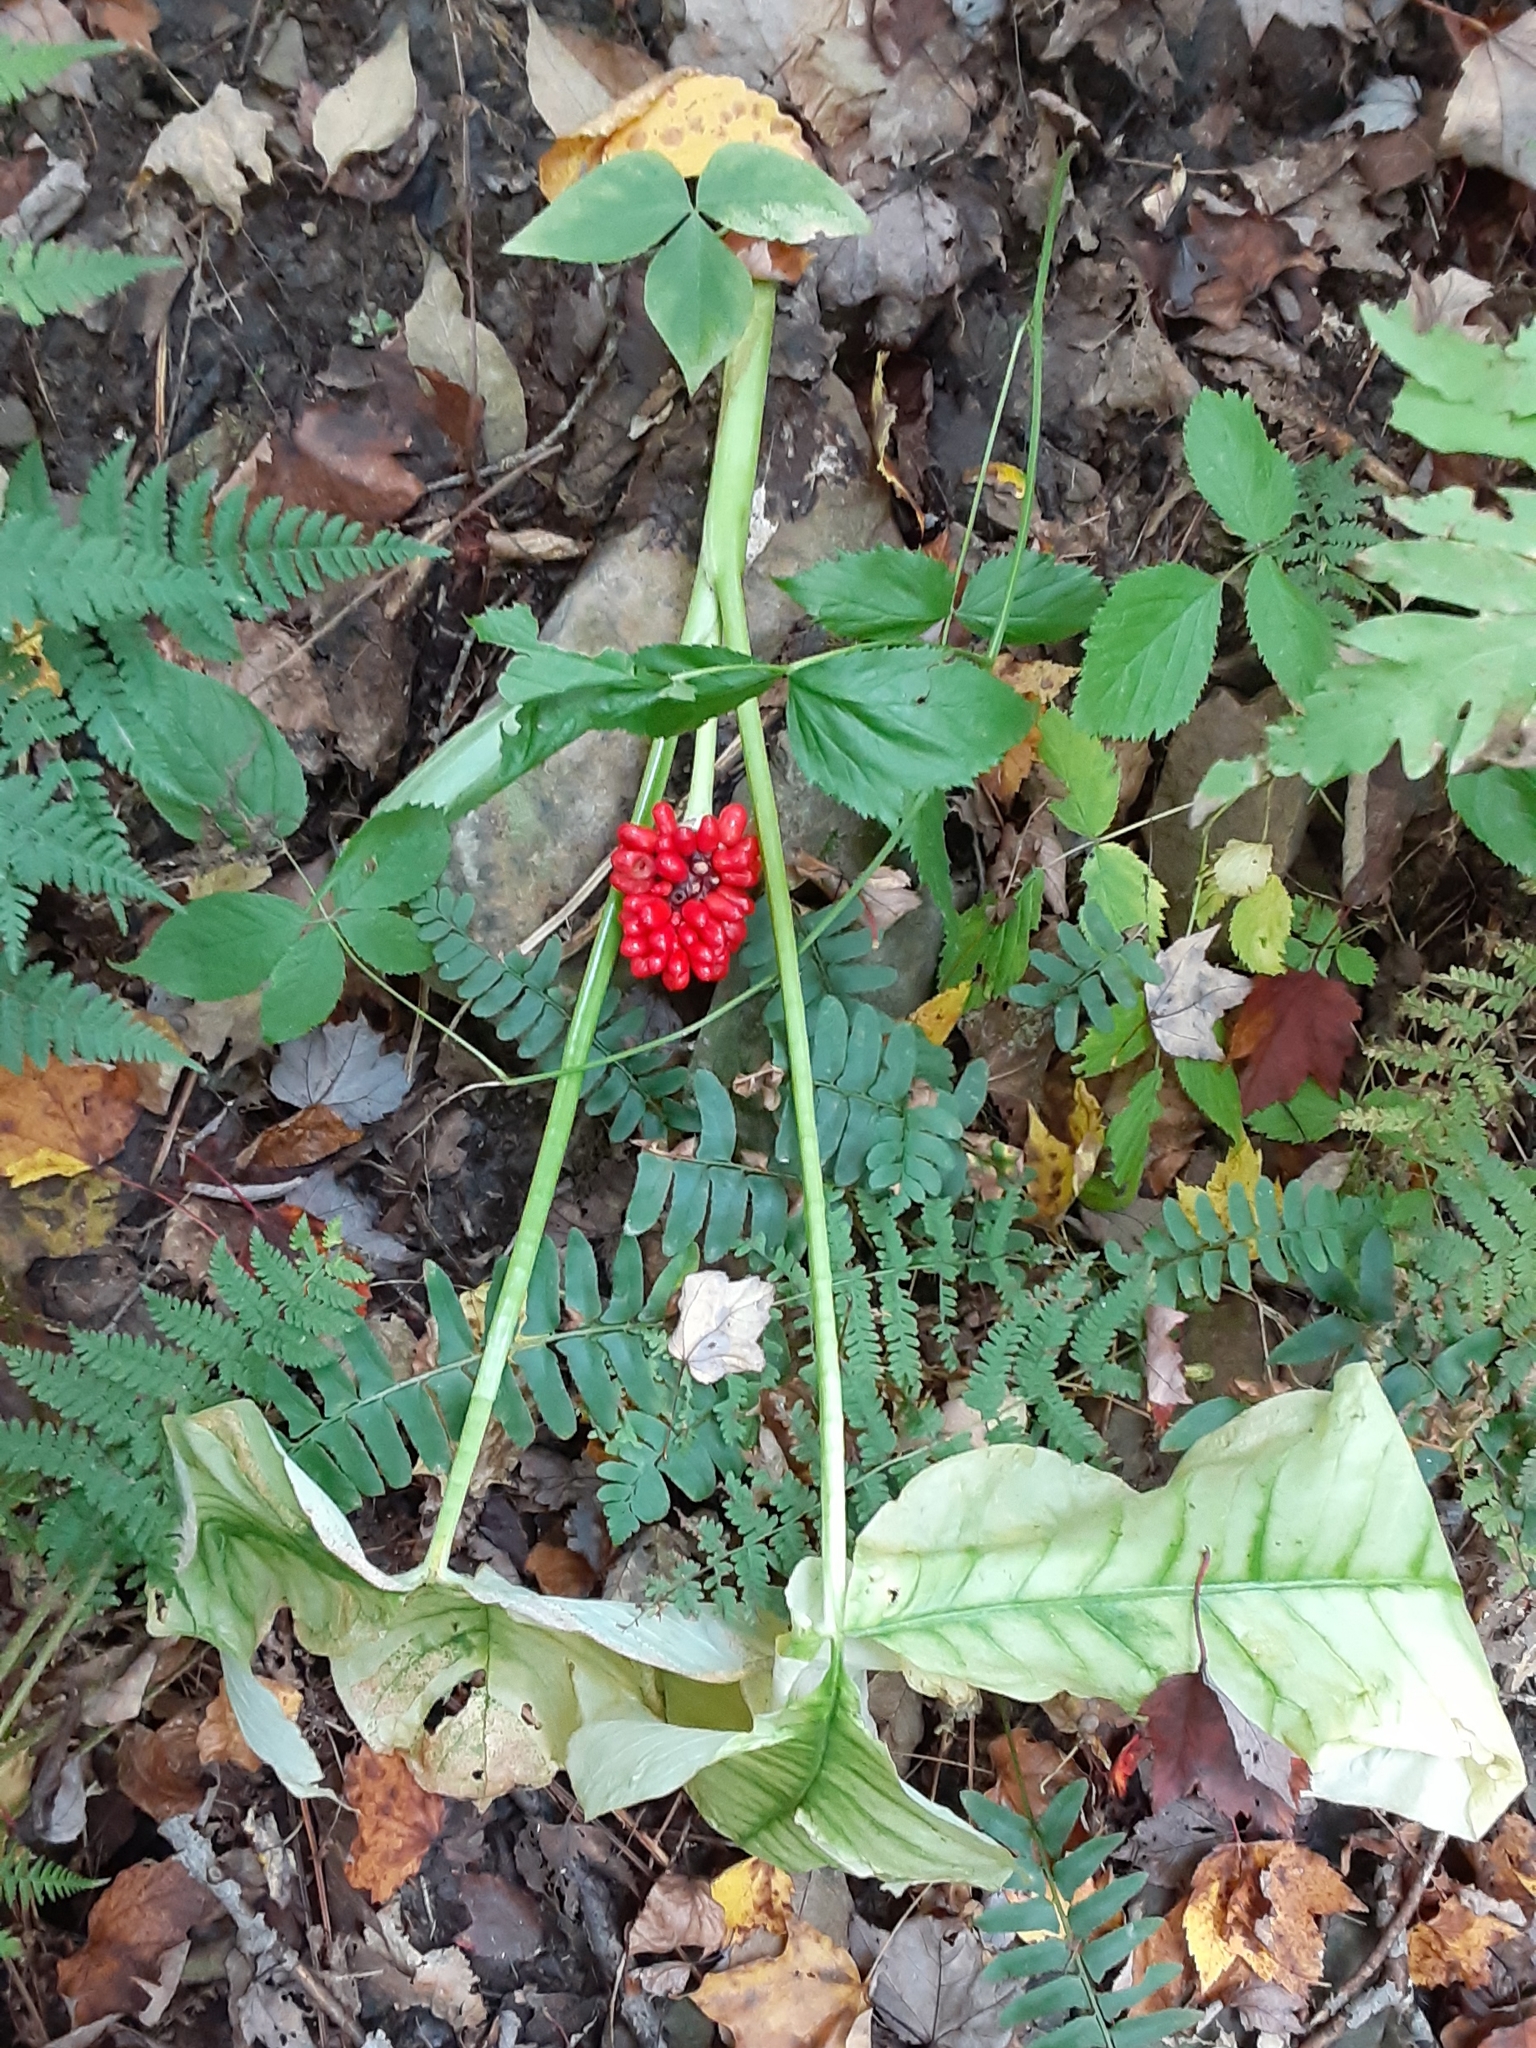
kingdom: Plantae
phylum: Tracheophyta
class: Liliopsida
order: Alismatales
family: Araceae
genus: Arisaema
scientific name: Arisaema triphyllum
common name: Jack-in-the-pulpit
